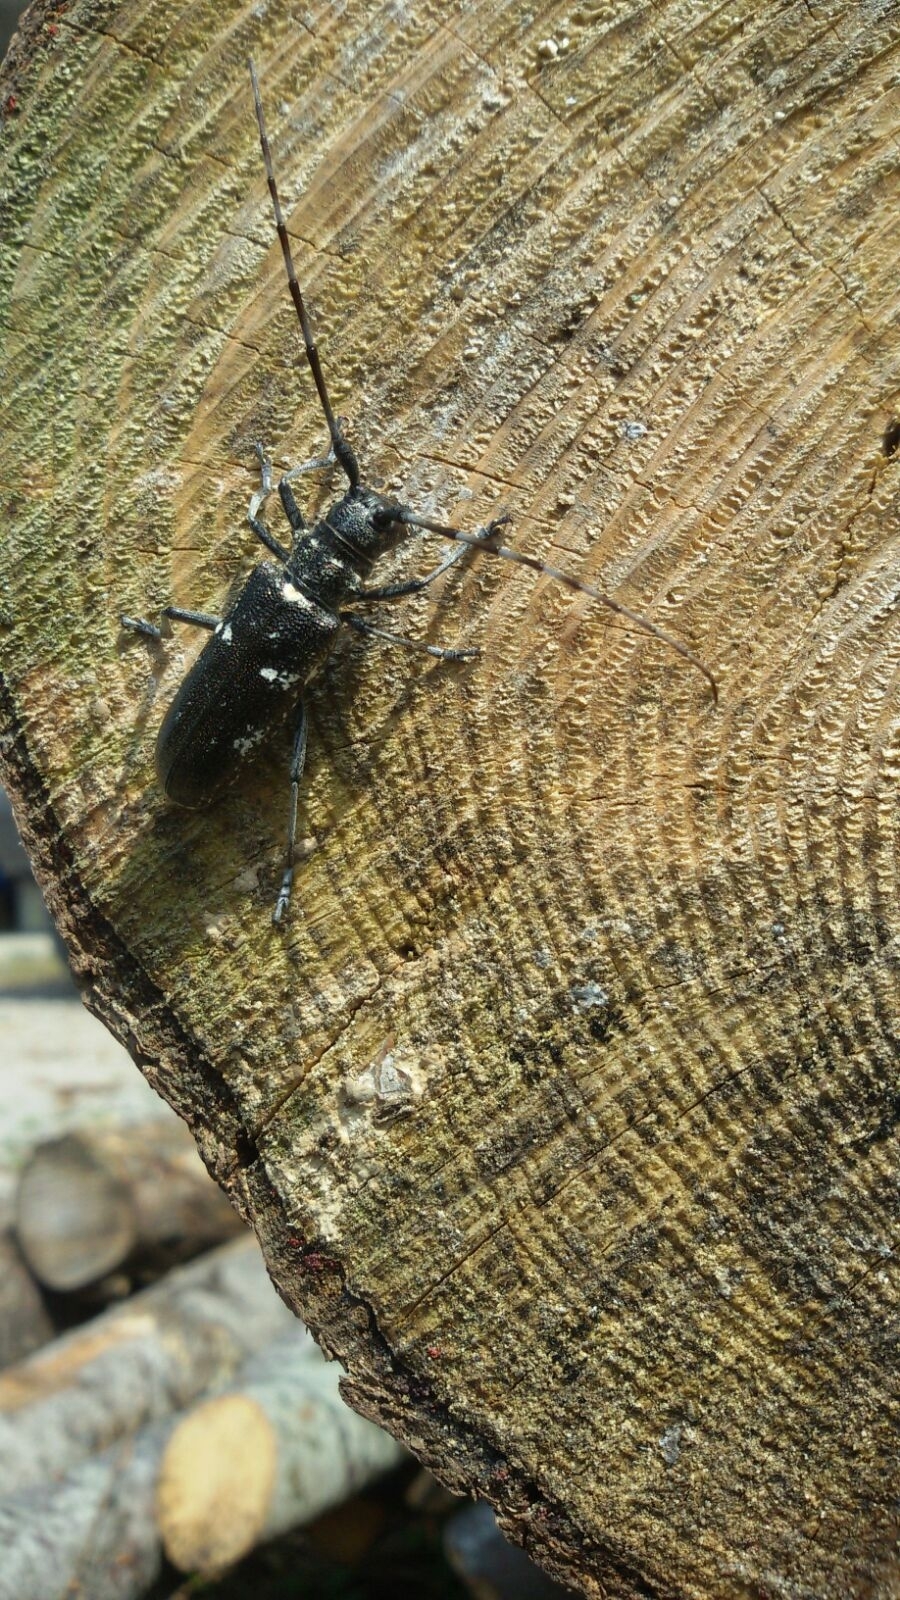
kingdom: Animalia
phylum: Arthropoda
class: Insecta
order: Coleoptera
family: Cerambycidae
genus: Monochamus
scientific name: Monochamus sartor
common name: Pine sawyer
